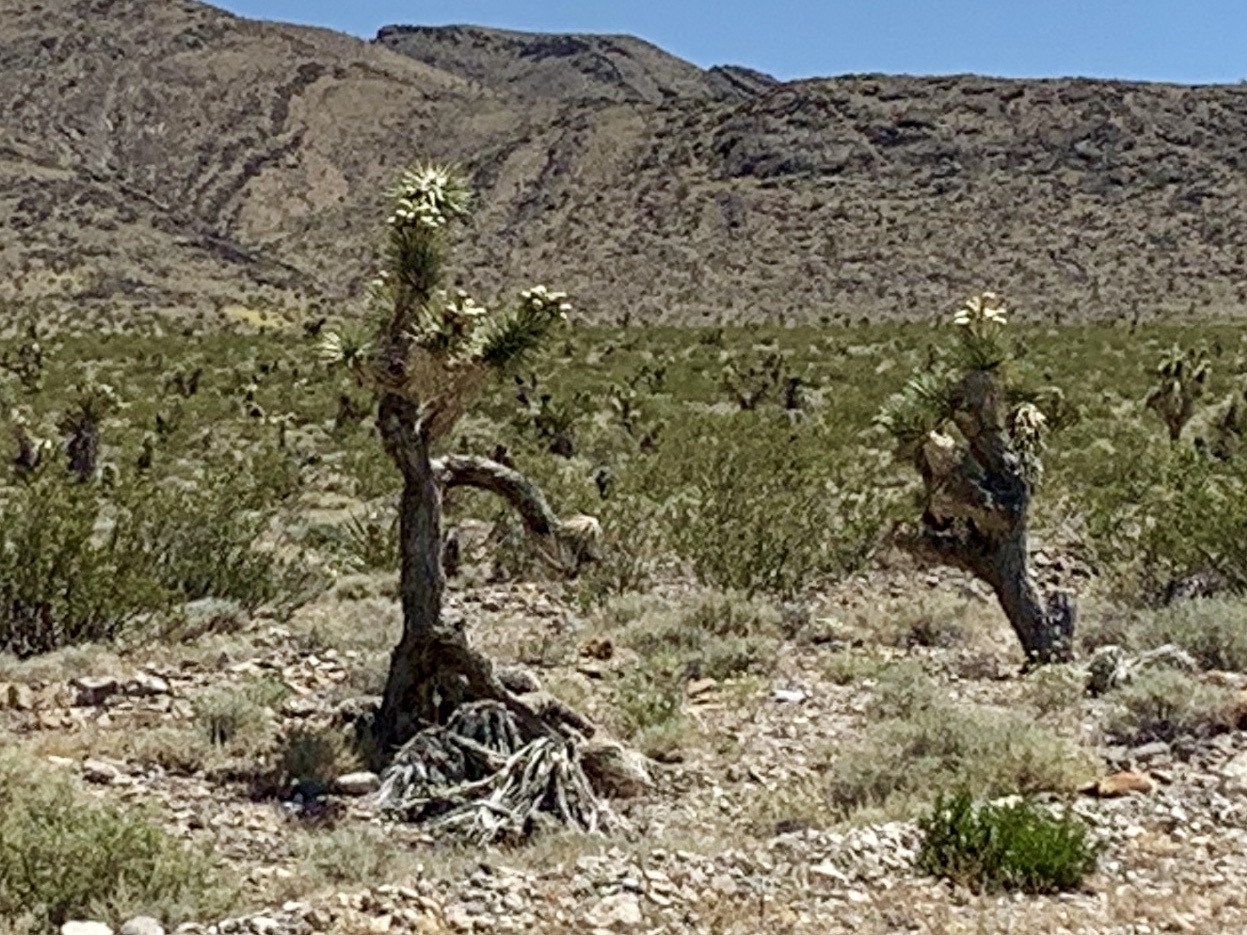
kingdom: Plantae
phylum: Tracheophyta
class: Liliopsida
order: Asparagales
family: Asparagaceae
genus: Yucca
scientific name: Yucca brevifolia
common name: Joshua tree
